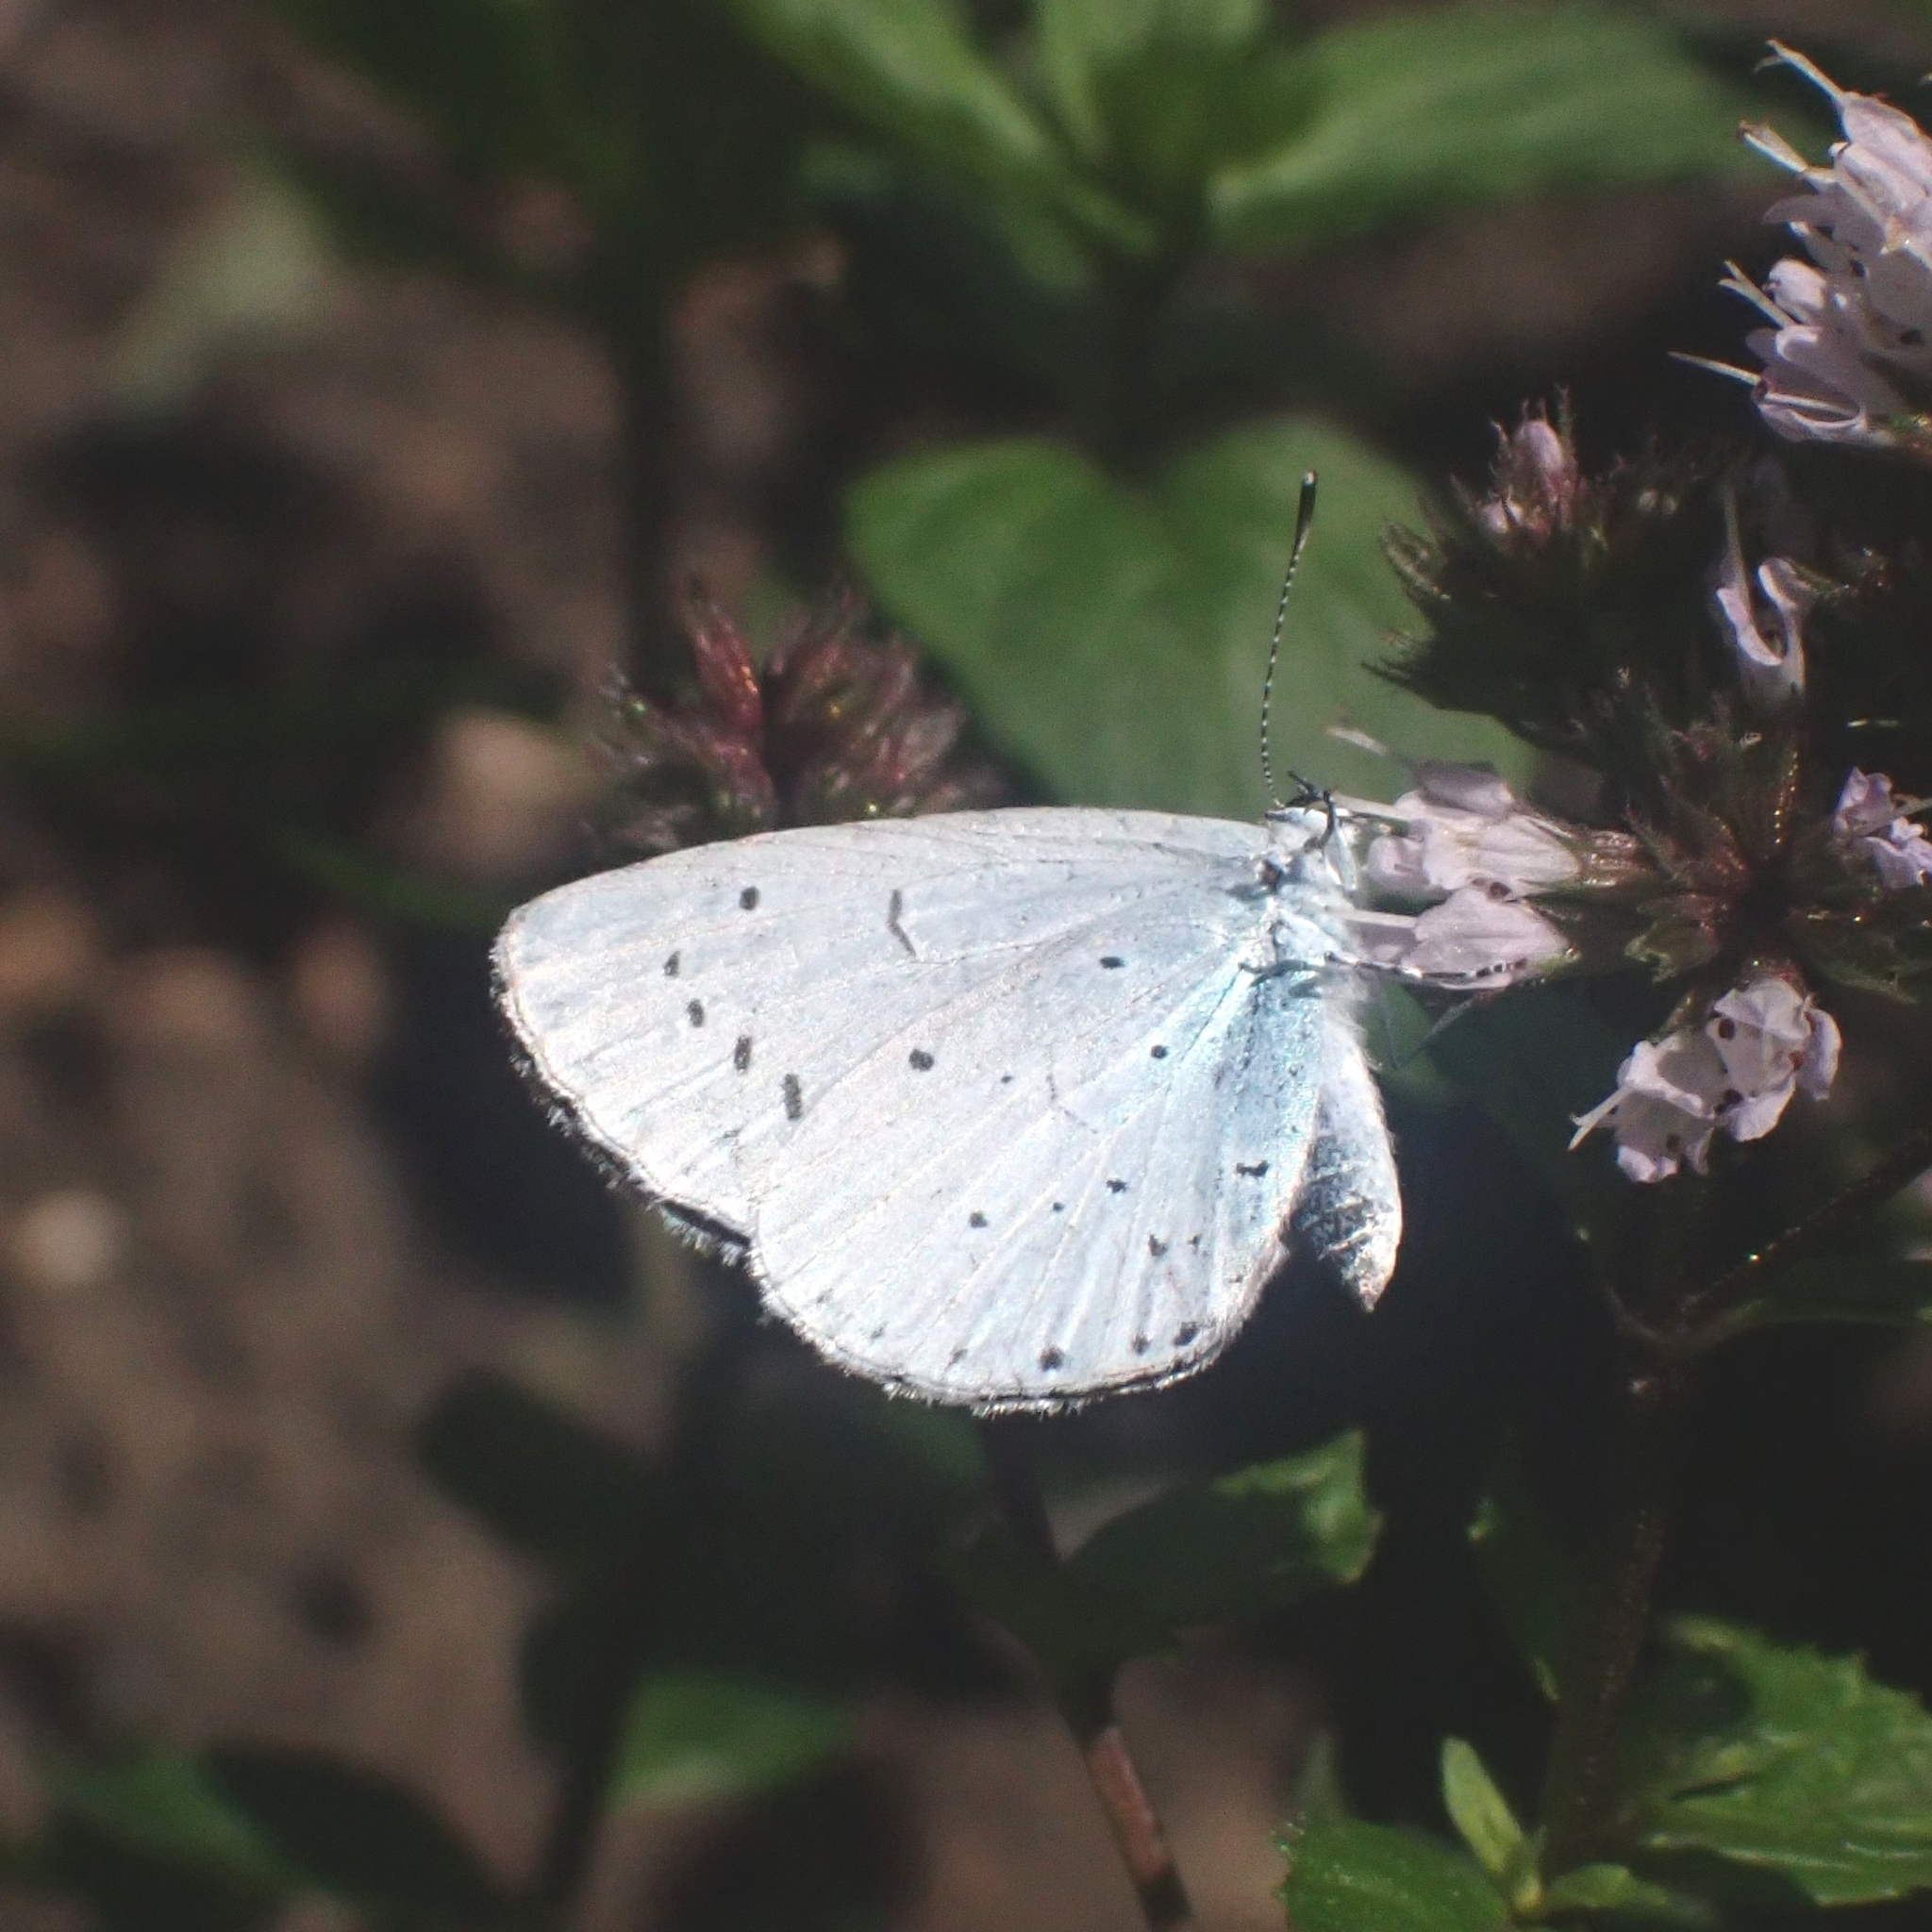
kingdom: Animalia
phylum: Arthropoda
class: Insecta
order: Lepidoptera
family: Lycaenidae
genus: Celastrina
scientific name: Celastrina argiolus
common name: Holly blue
